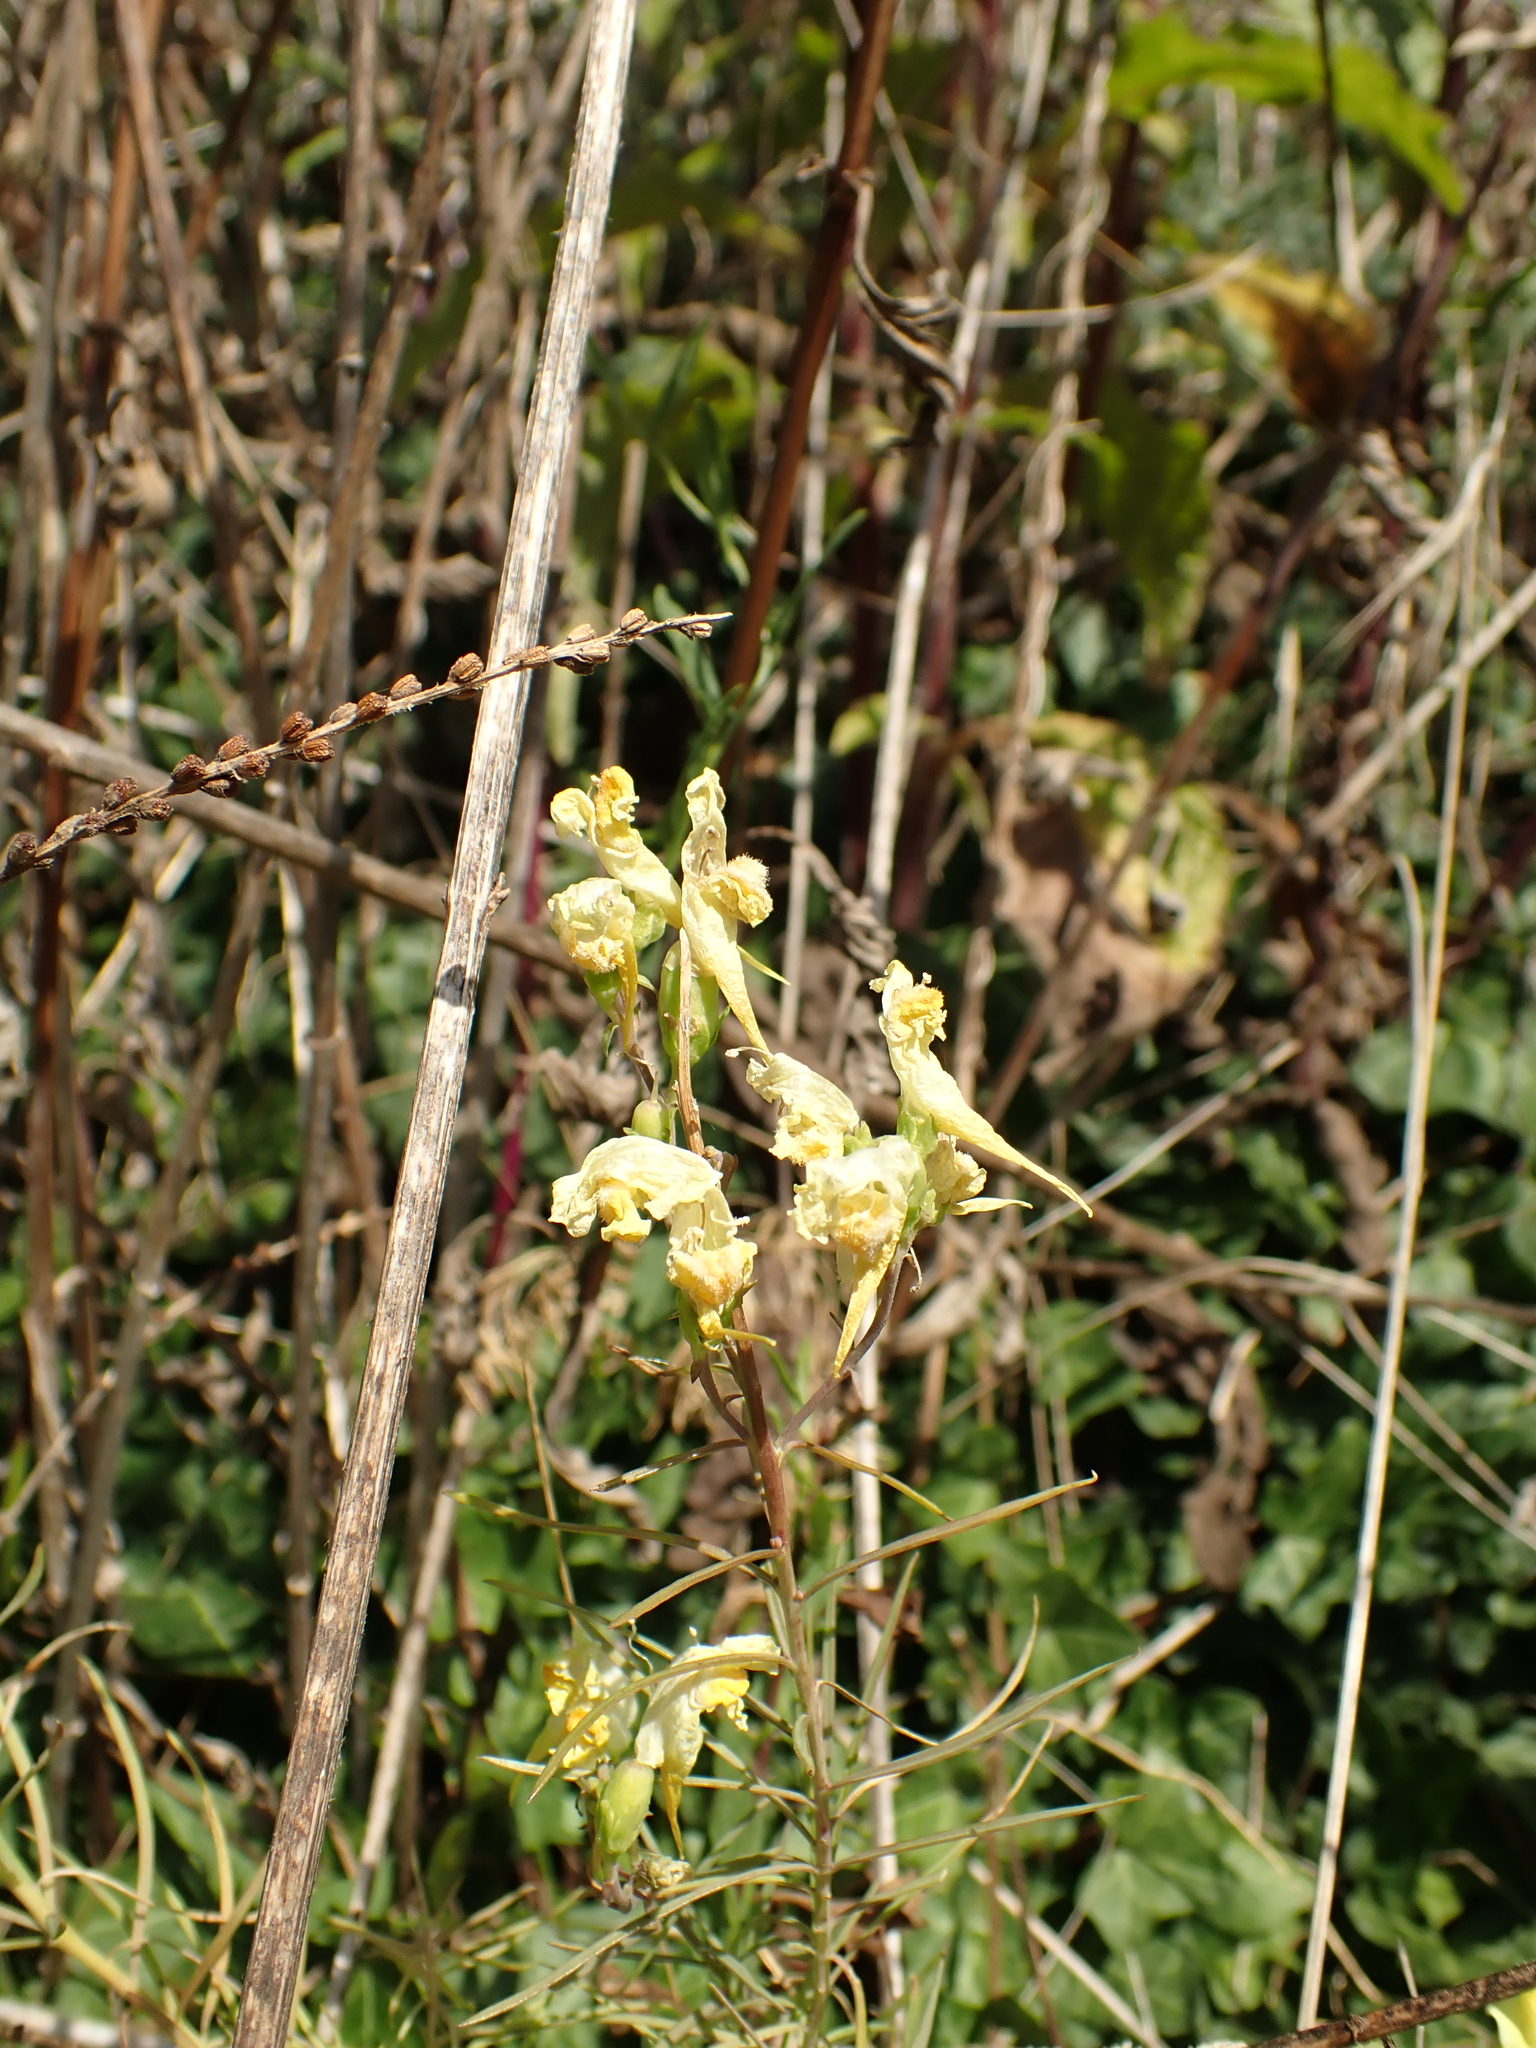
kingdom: Plantae
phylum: Tracheophyta
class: Magnoliopsida
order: Lamiales
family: Plantaginaceae
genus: Linaria
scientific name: Linaria vulgaris
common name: Butter and eggs
